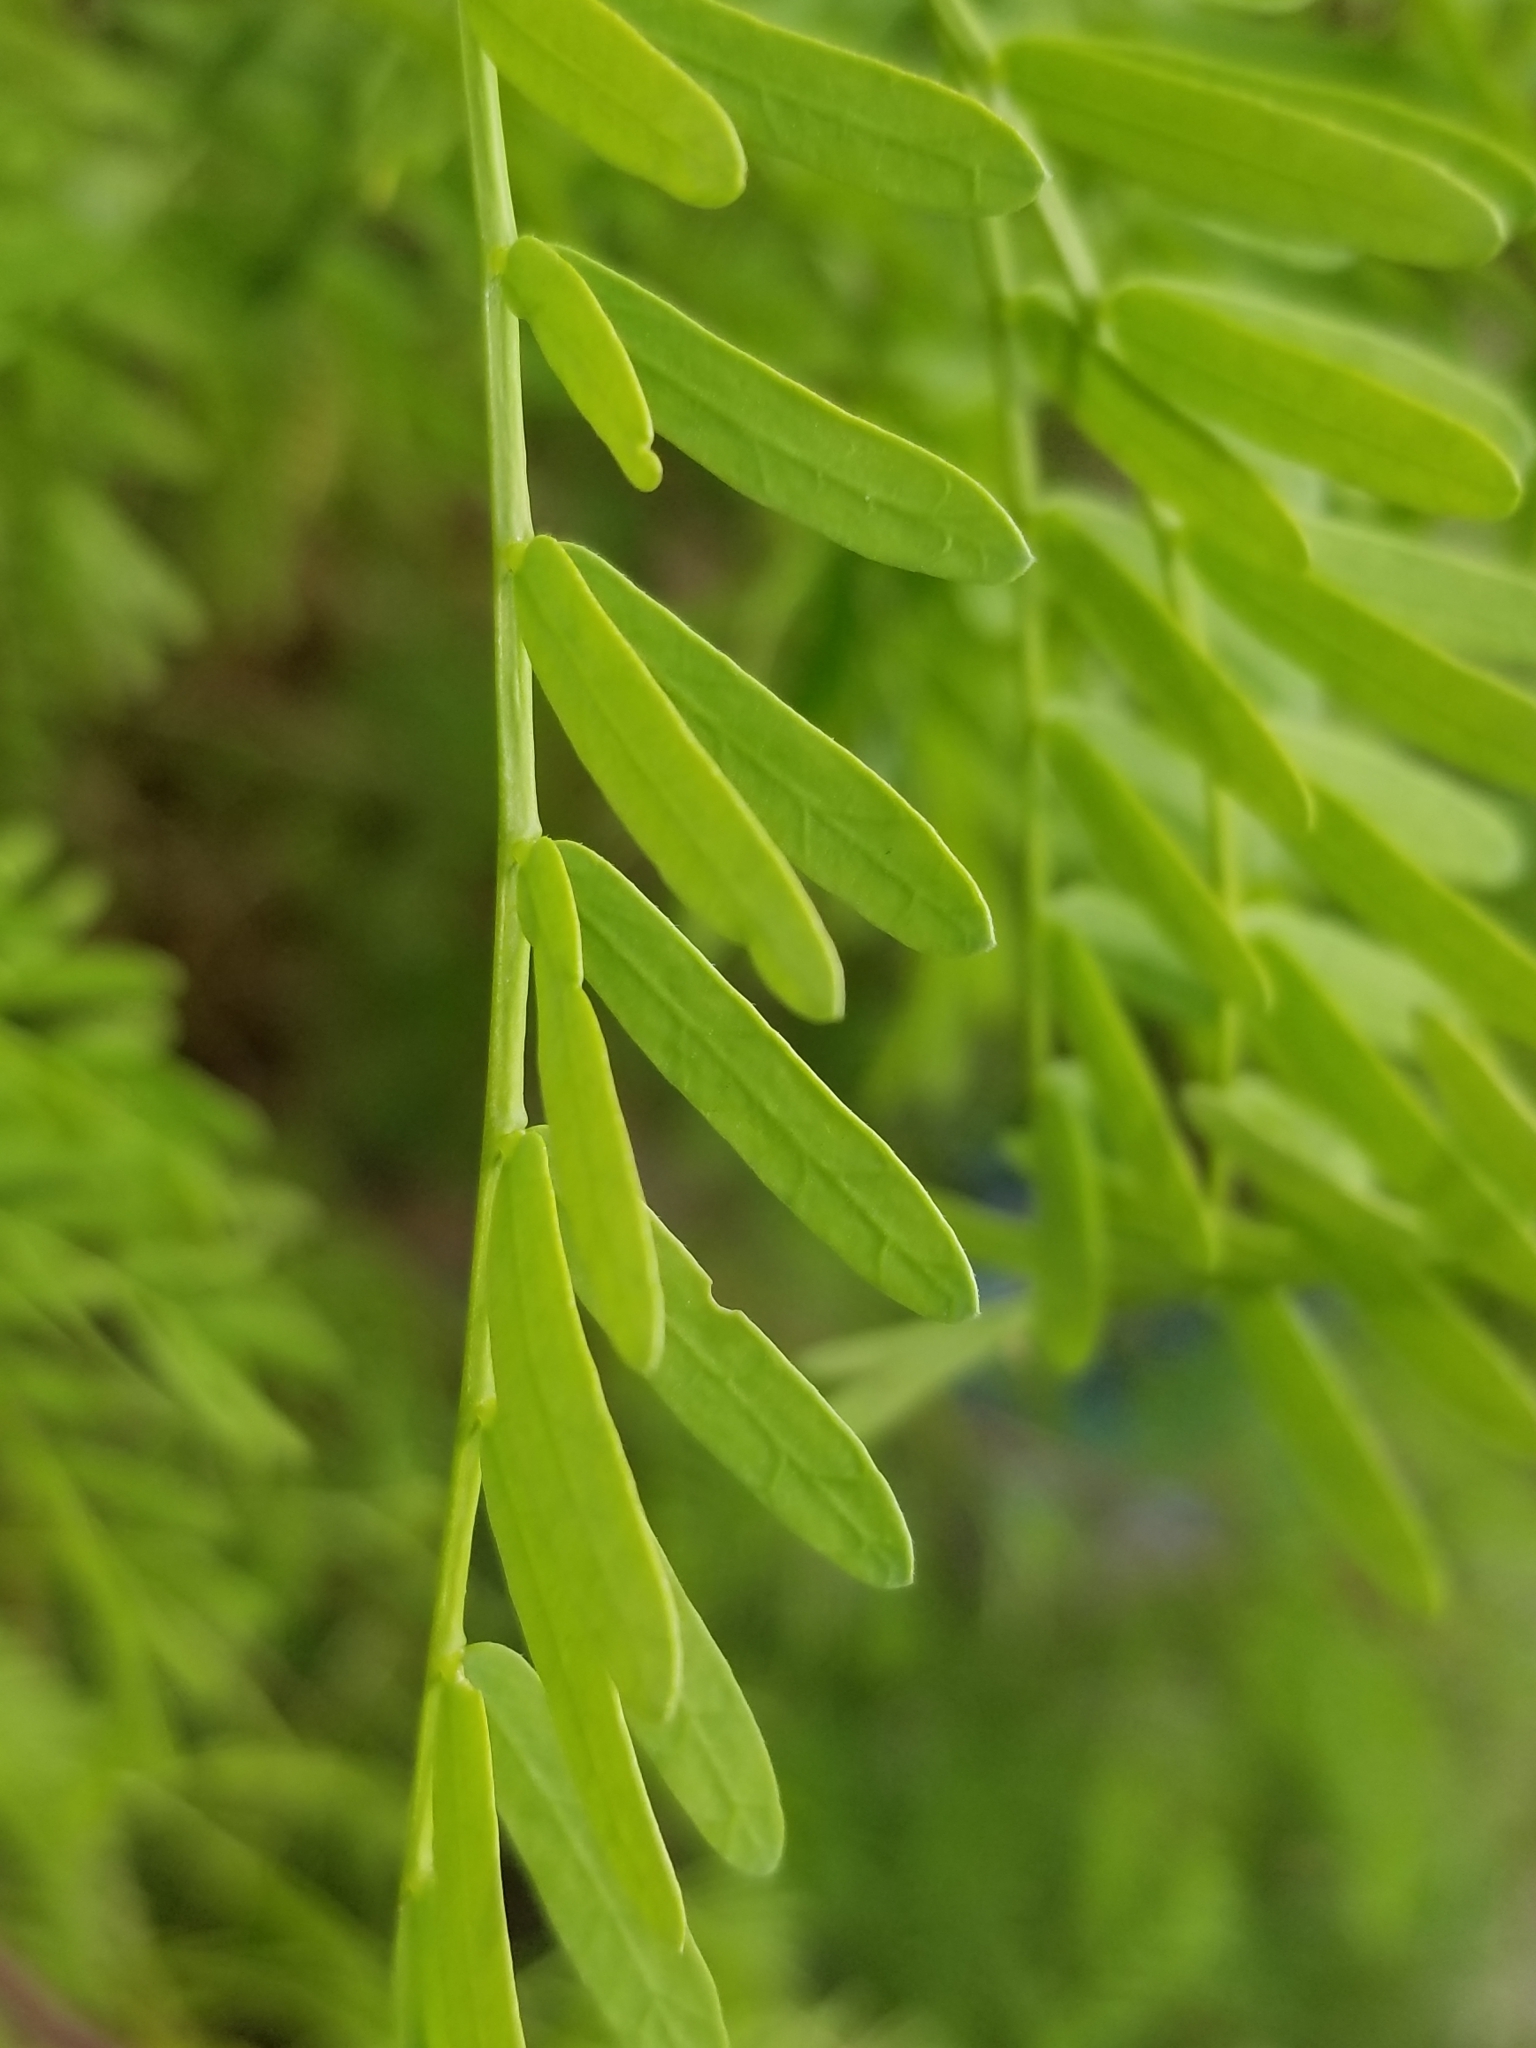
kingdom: Plantae
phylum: Tracheophyta
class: Magnoliopsida
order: Fabales
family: Fabaceae
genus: Prosopis
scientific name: Prosopis pubescens
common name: Screw-bean
